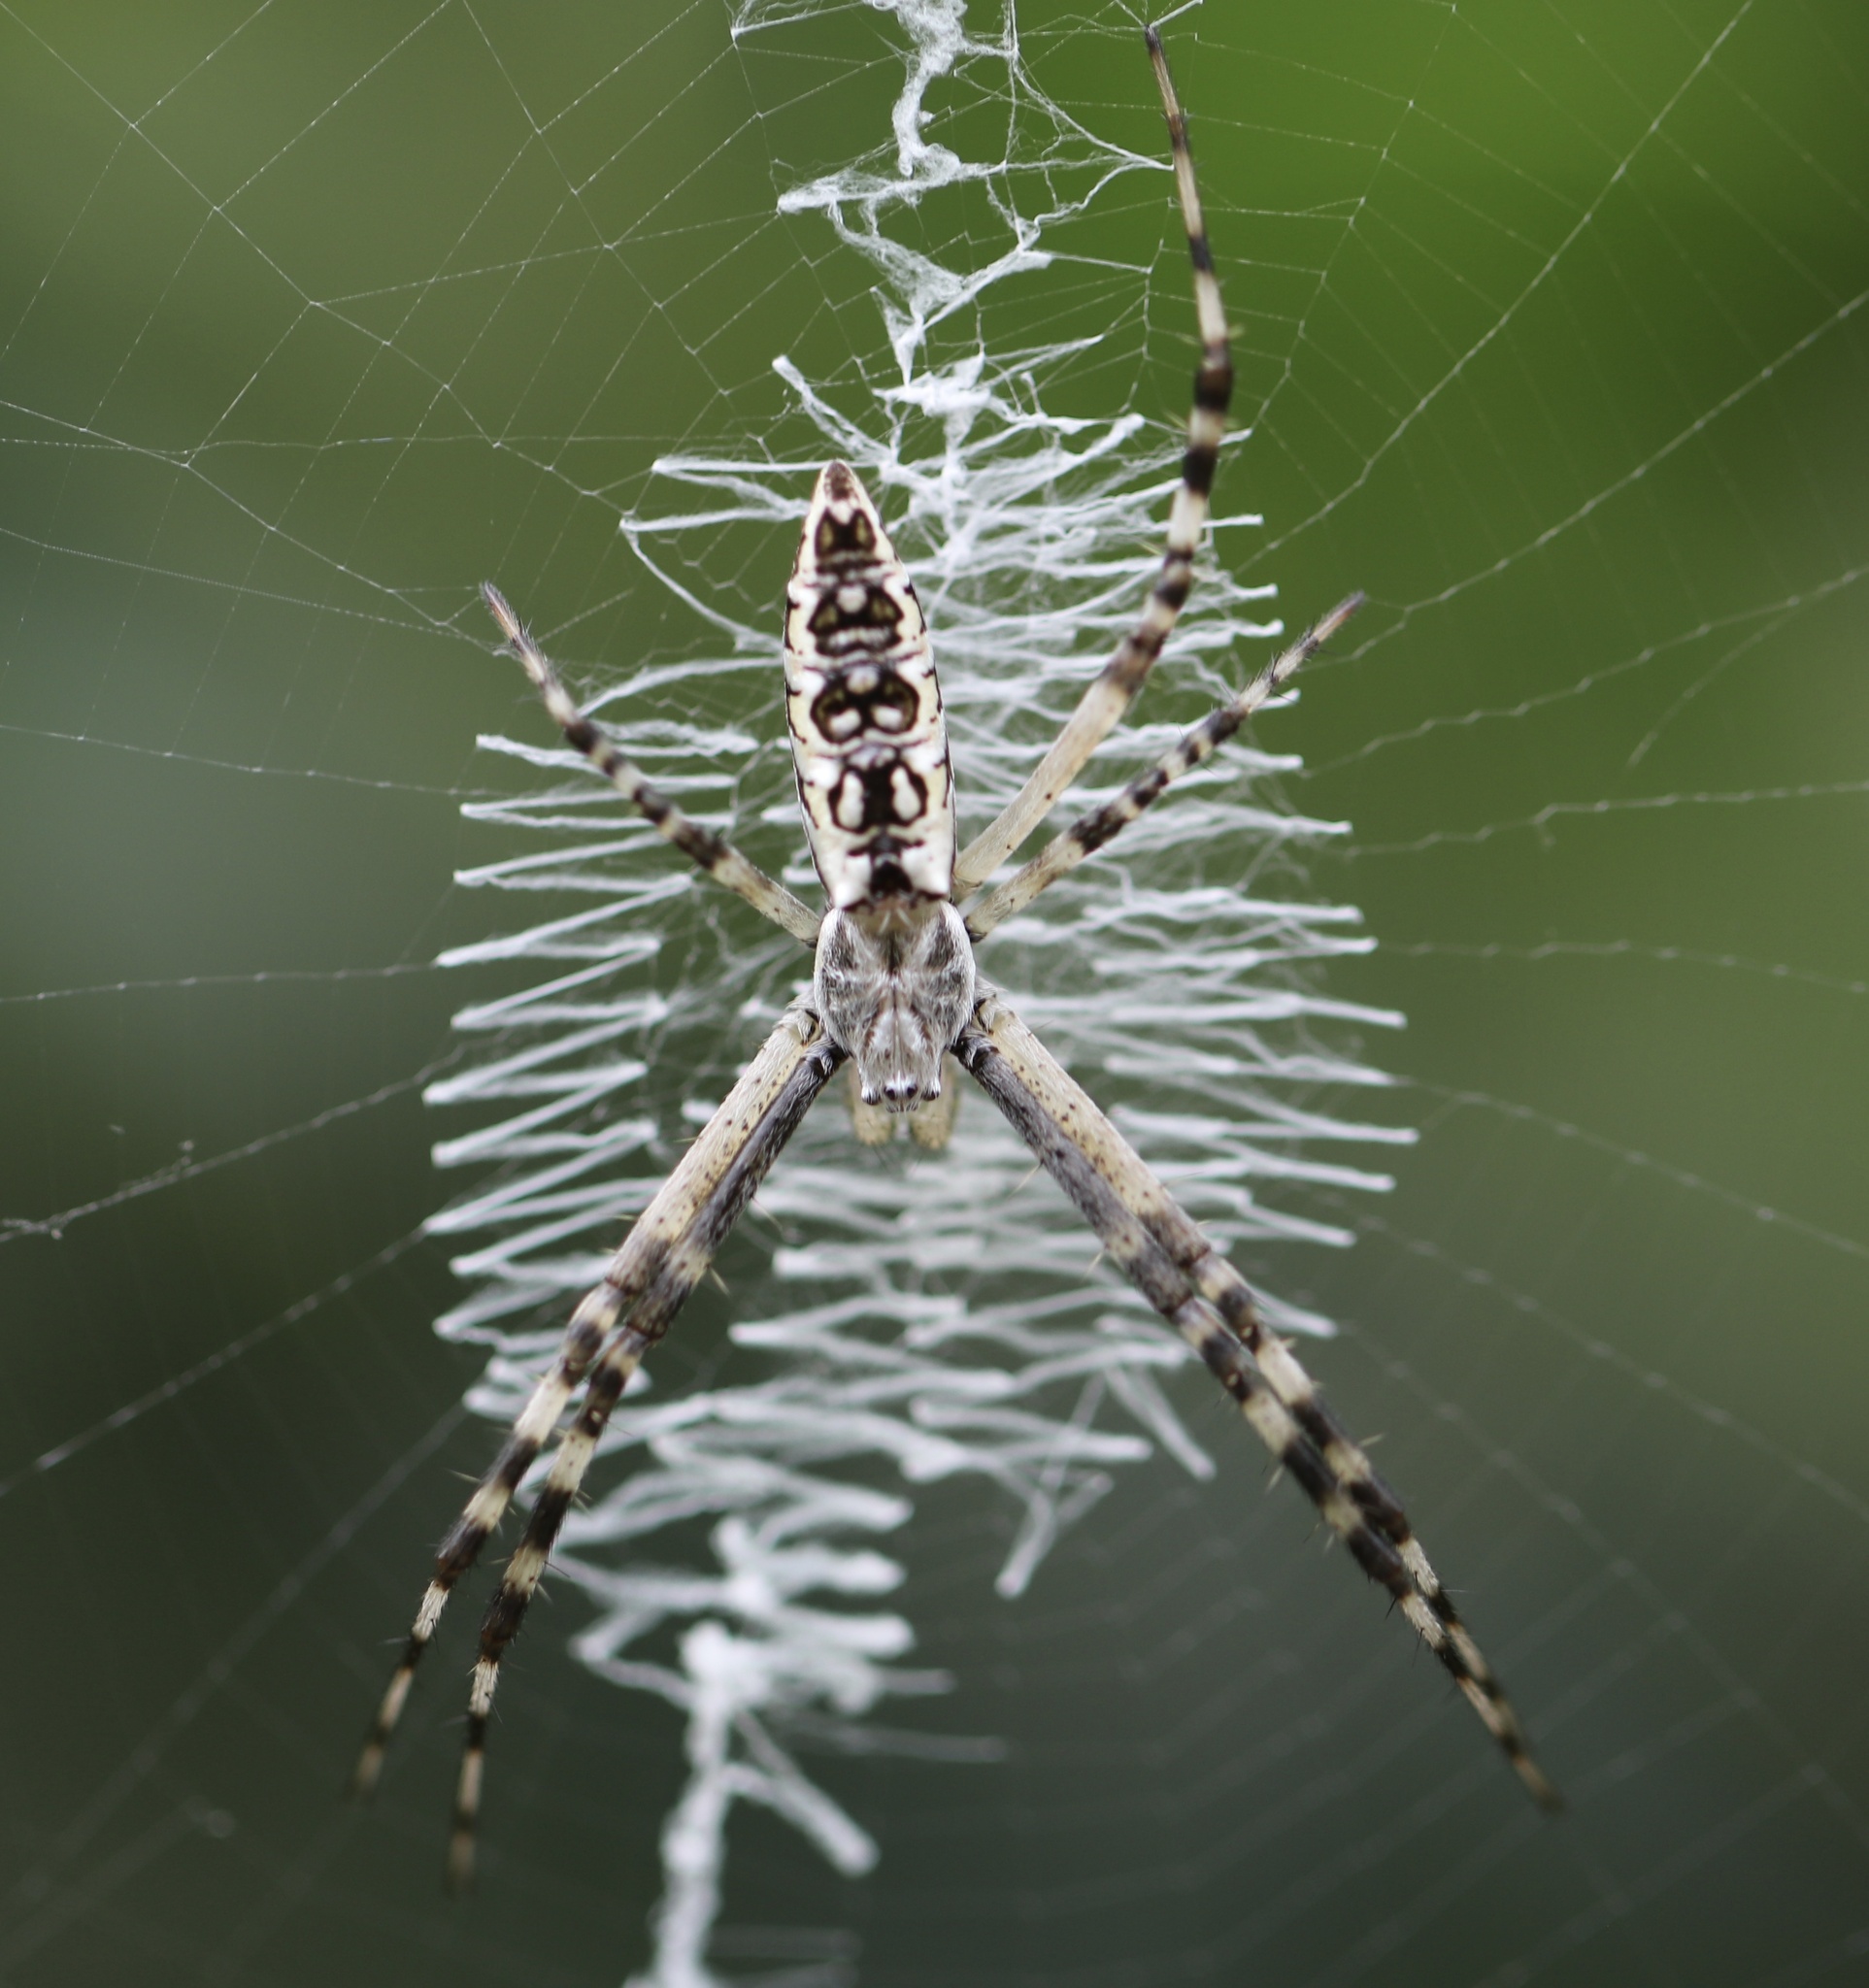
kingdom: Animalia
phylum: Arthropoda
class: Arachnida
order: Araneae
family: Araneidae
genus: Argiope
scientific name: Argiope aurantia
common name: Orb weavers
